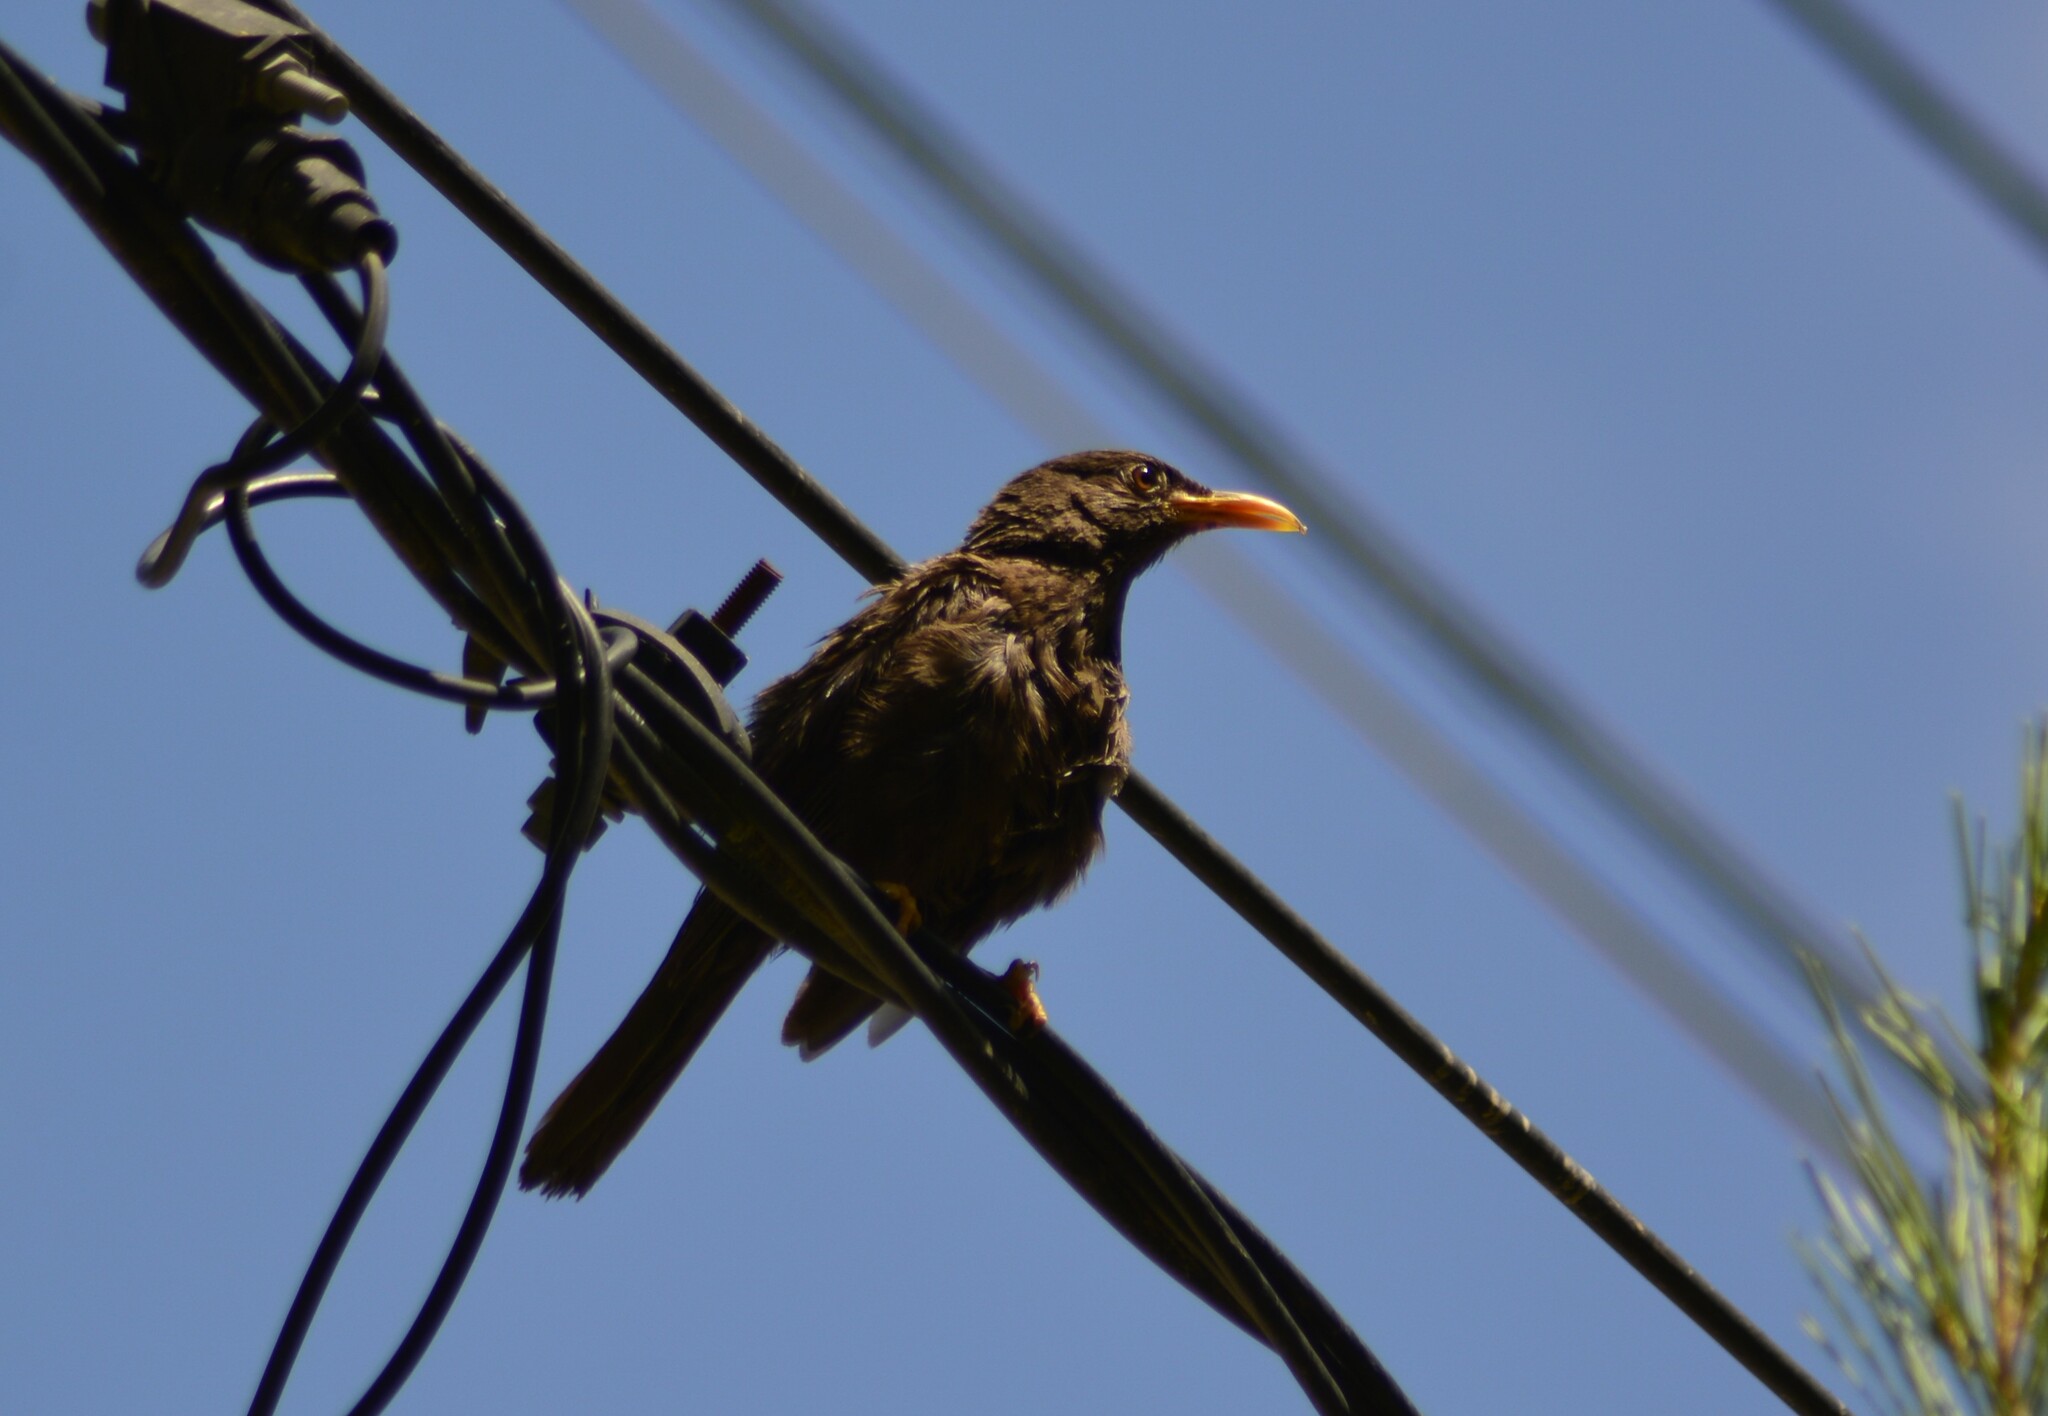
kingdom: Animalia
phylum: Chordata
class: Aves
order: Passeriformes
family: Turdidae
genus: Turdus
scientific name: Turdus chiguanco
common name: Chiguanco thrush
